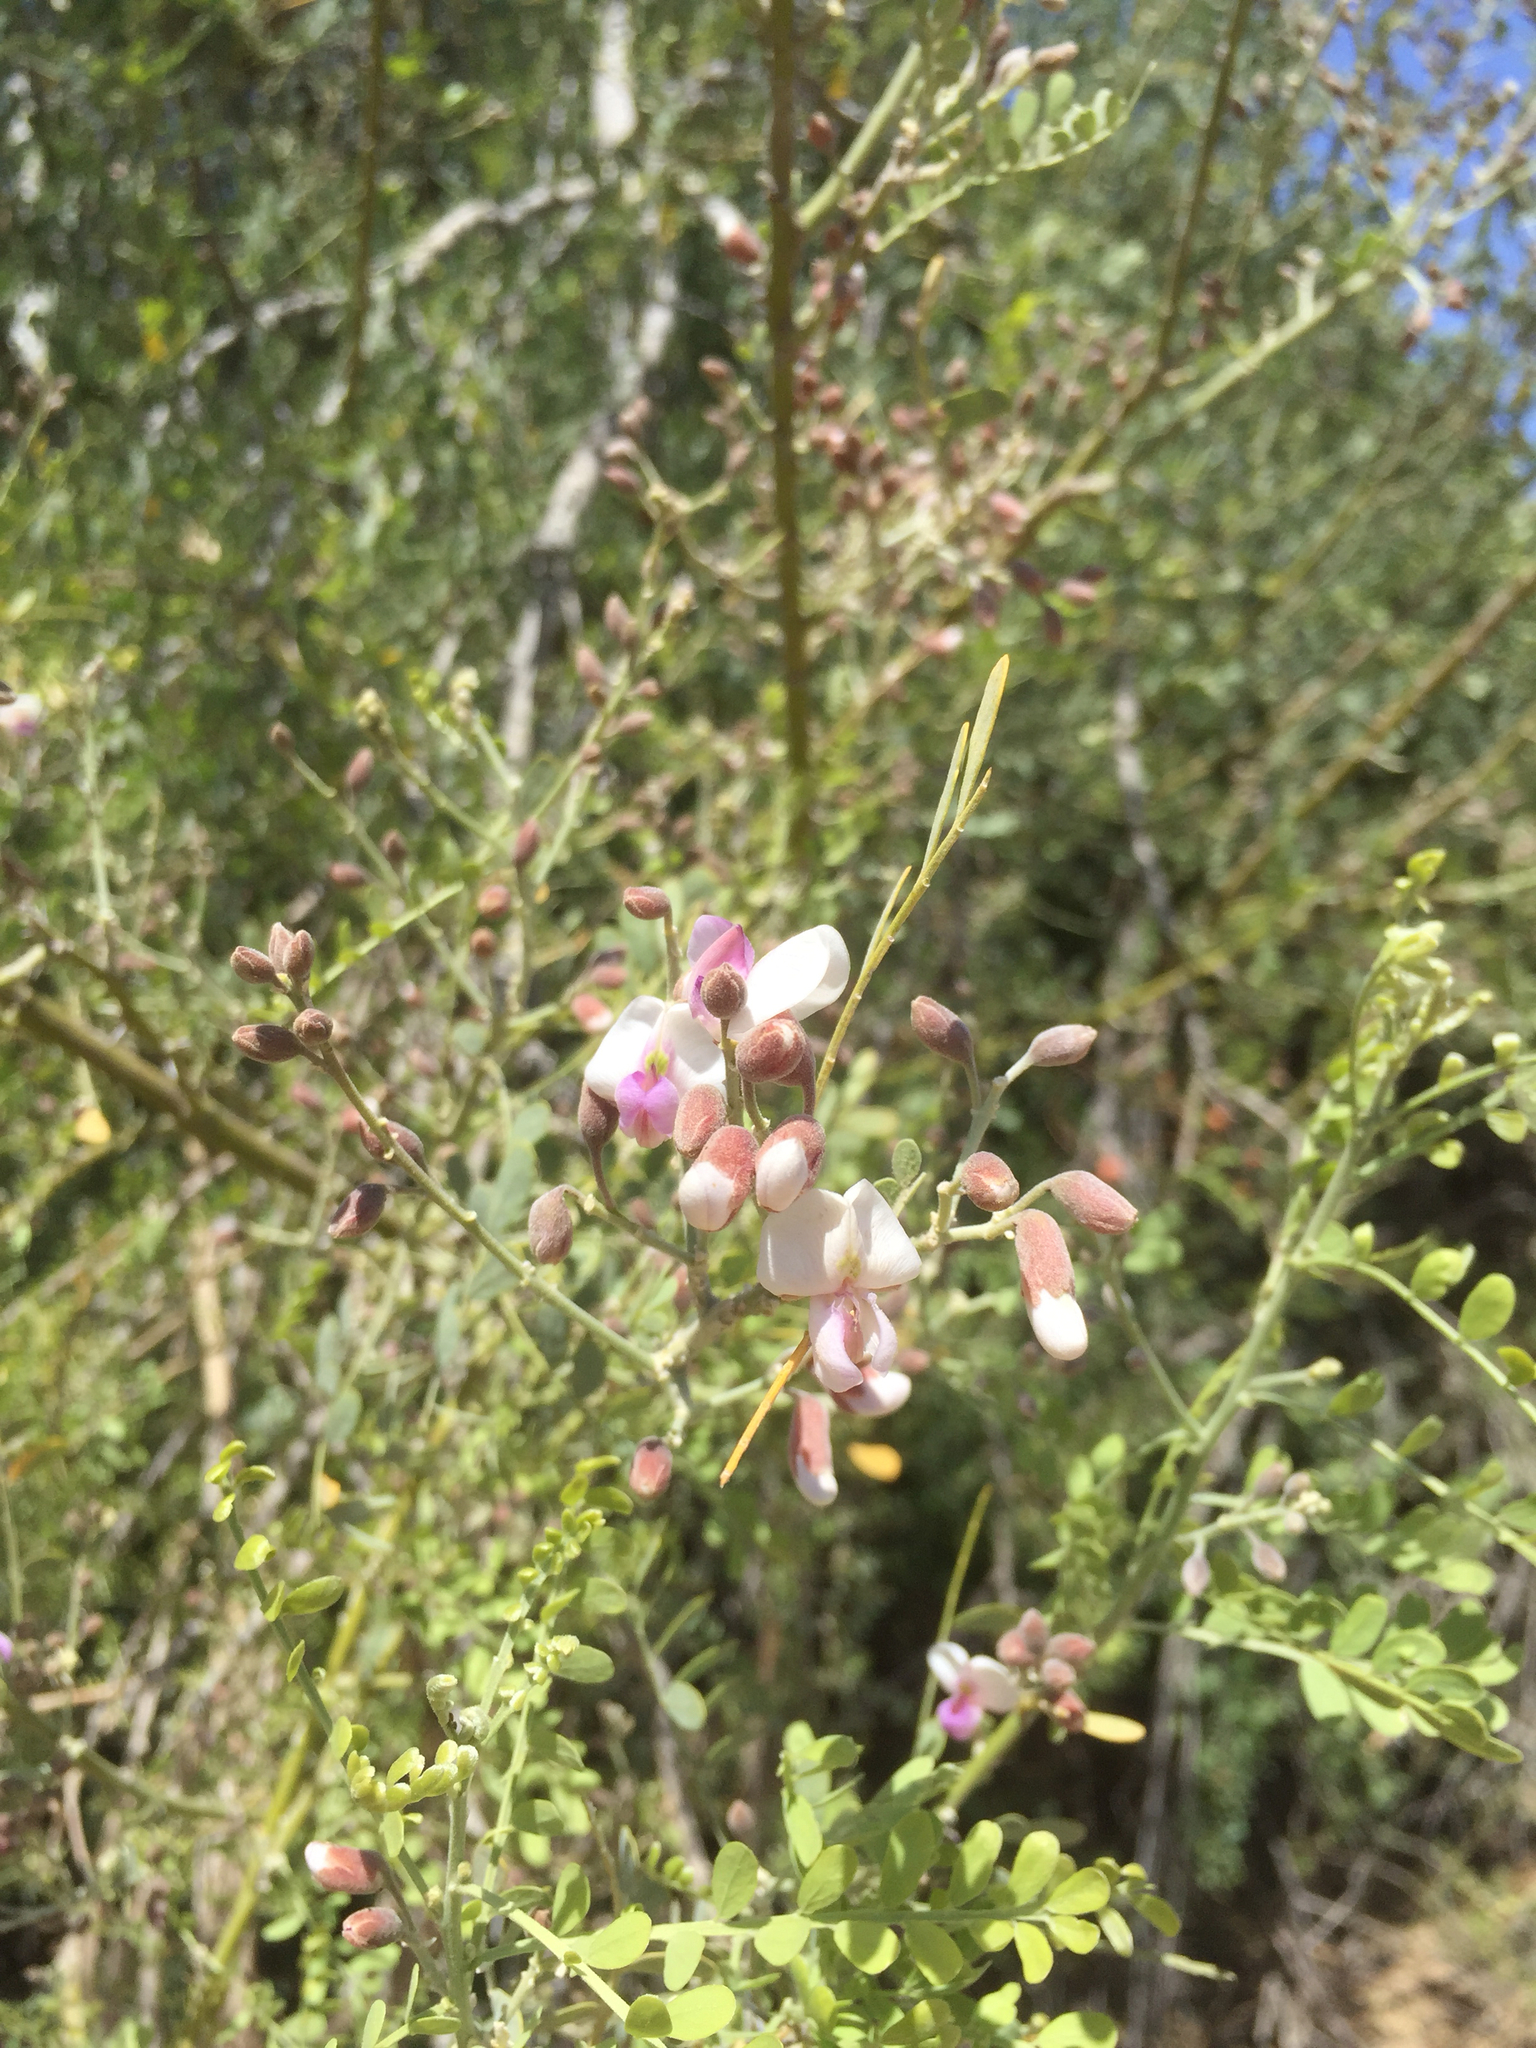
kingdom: Plantae
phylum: Tracheophyta
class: Magnoliopsida
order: Fabales
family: Fabaceae
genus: Olneya
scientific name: Olneya tesota
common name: Desert ironwood
